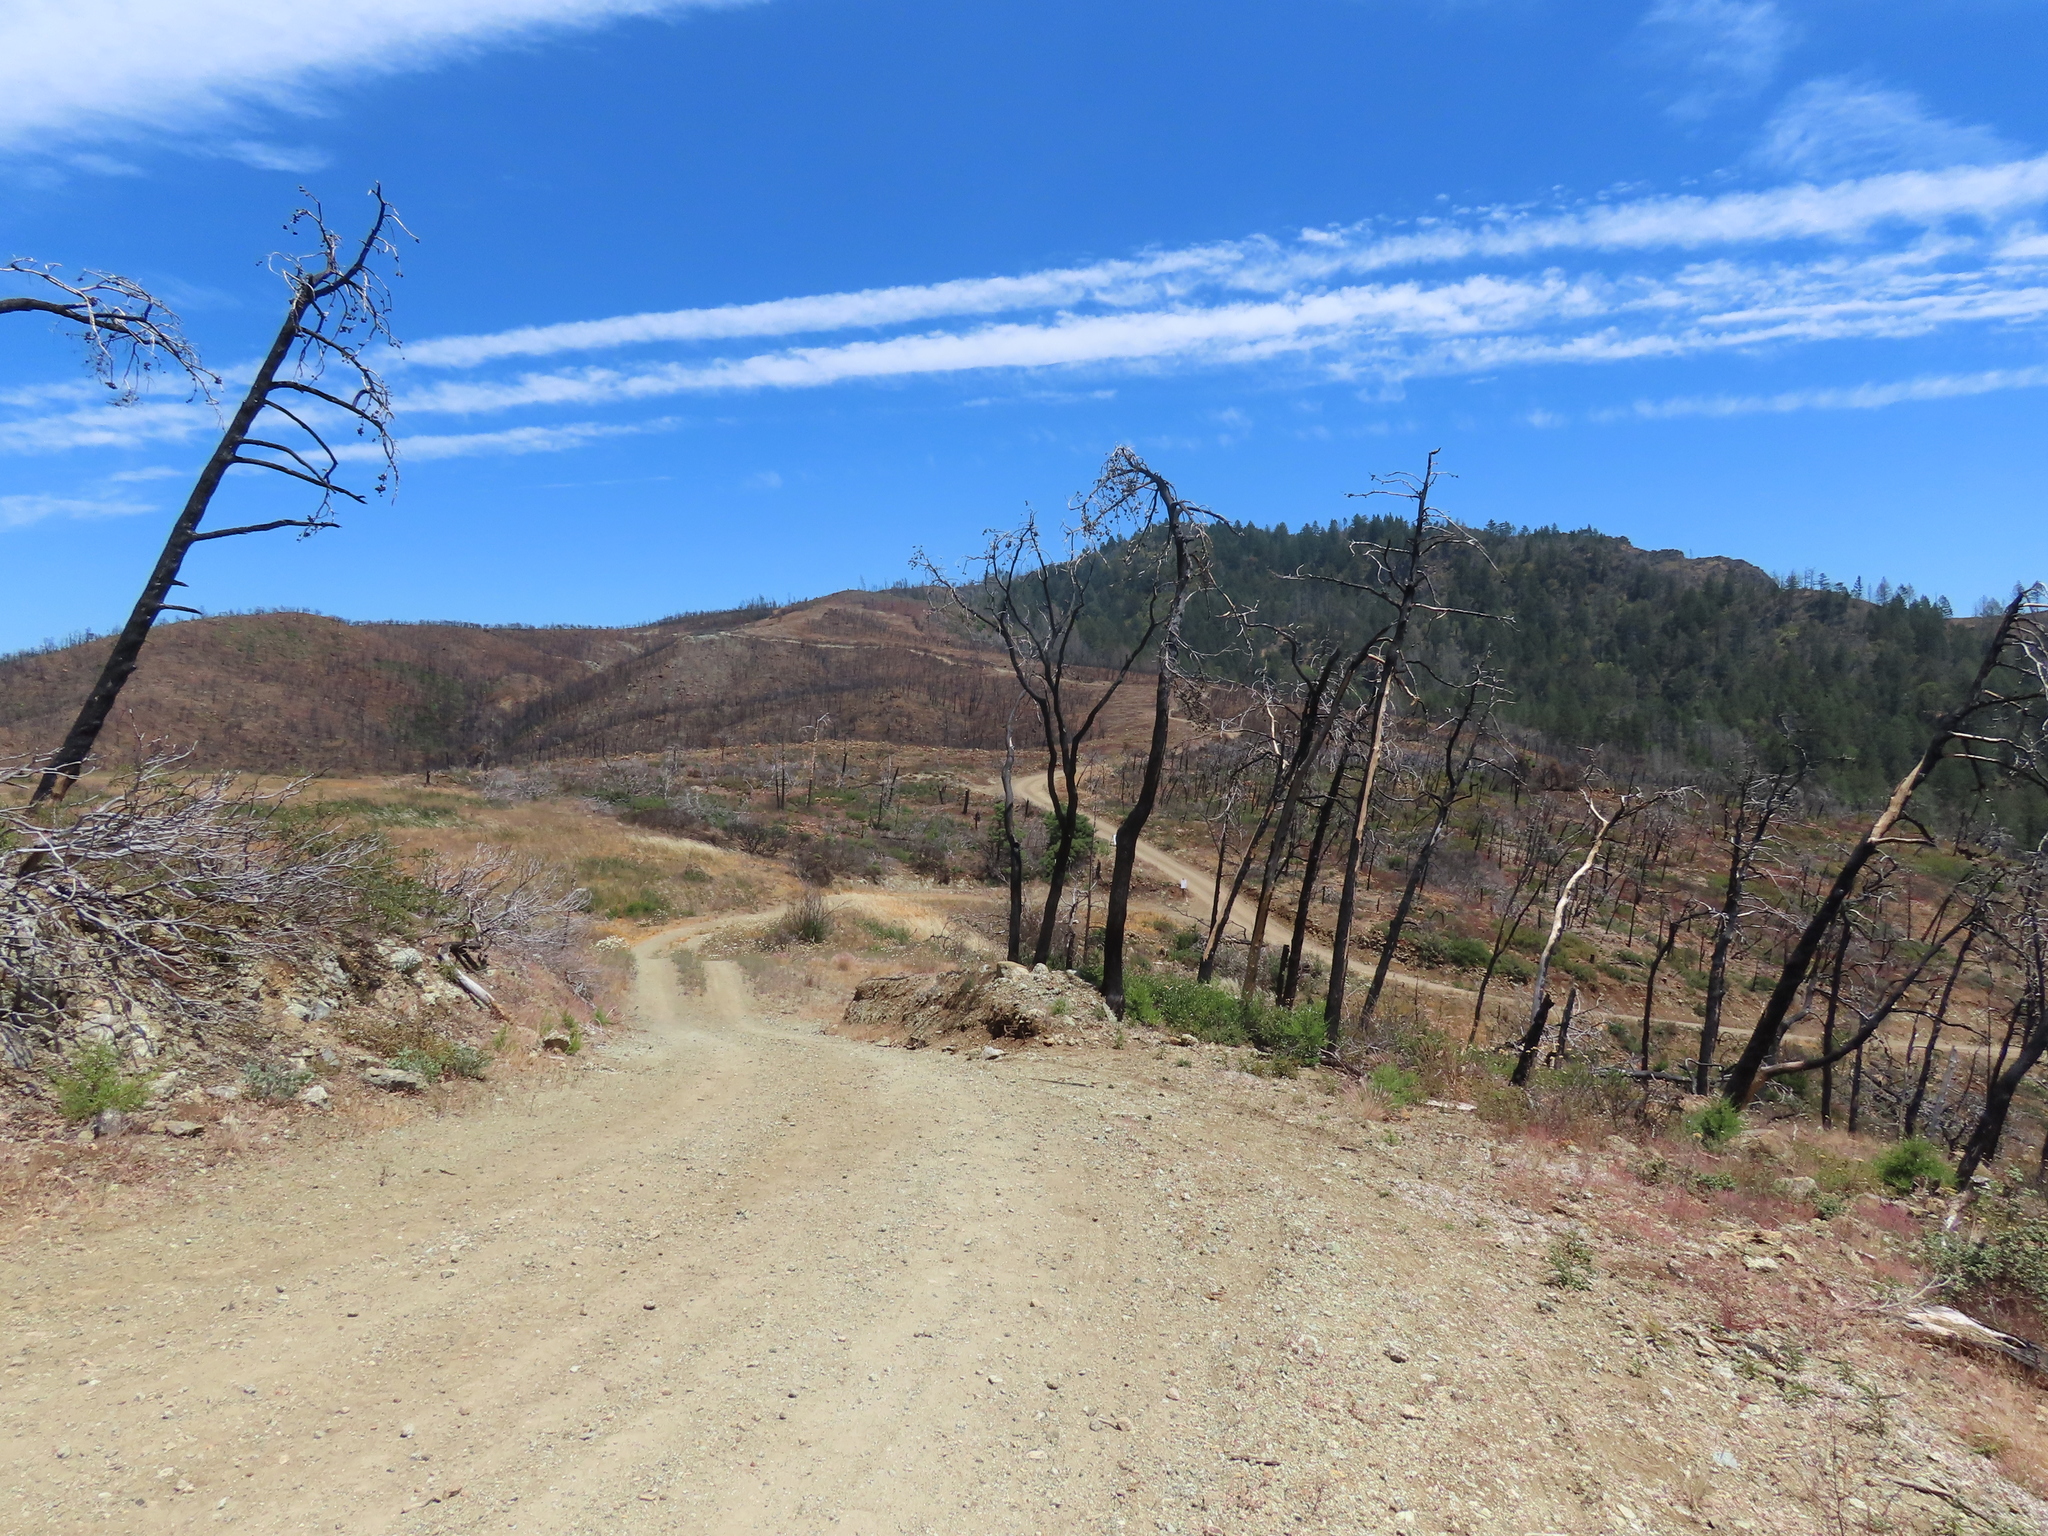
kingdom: Plantae
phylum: Tracheophyta
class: Pinopsida
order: Pinales
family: Cupressaceae
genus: Cupressus
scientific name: Cupressus sargentii
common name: Sargent cypress
